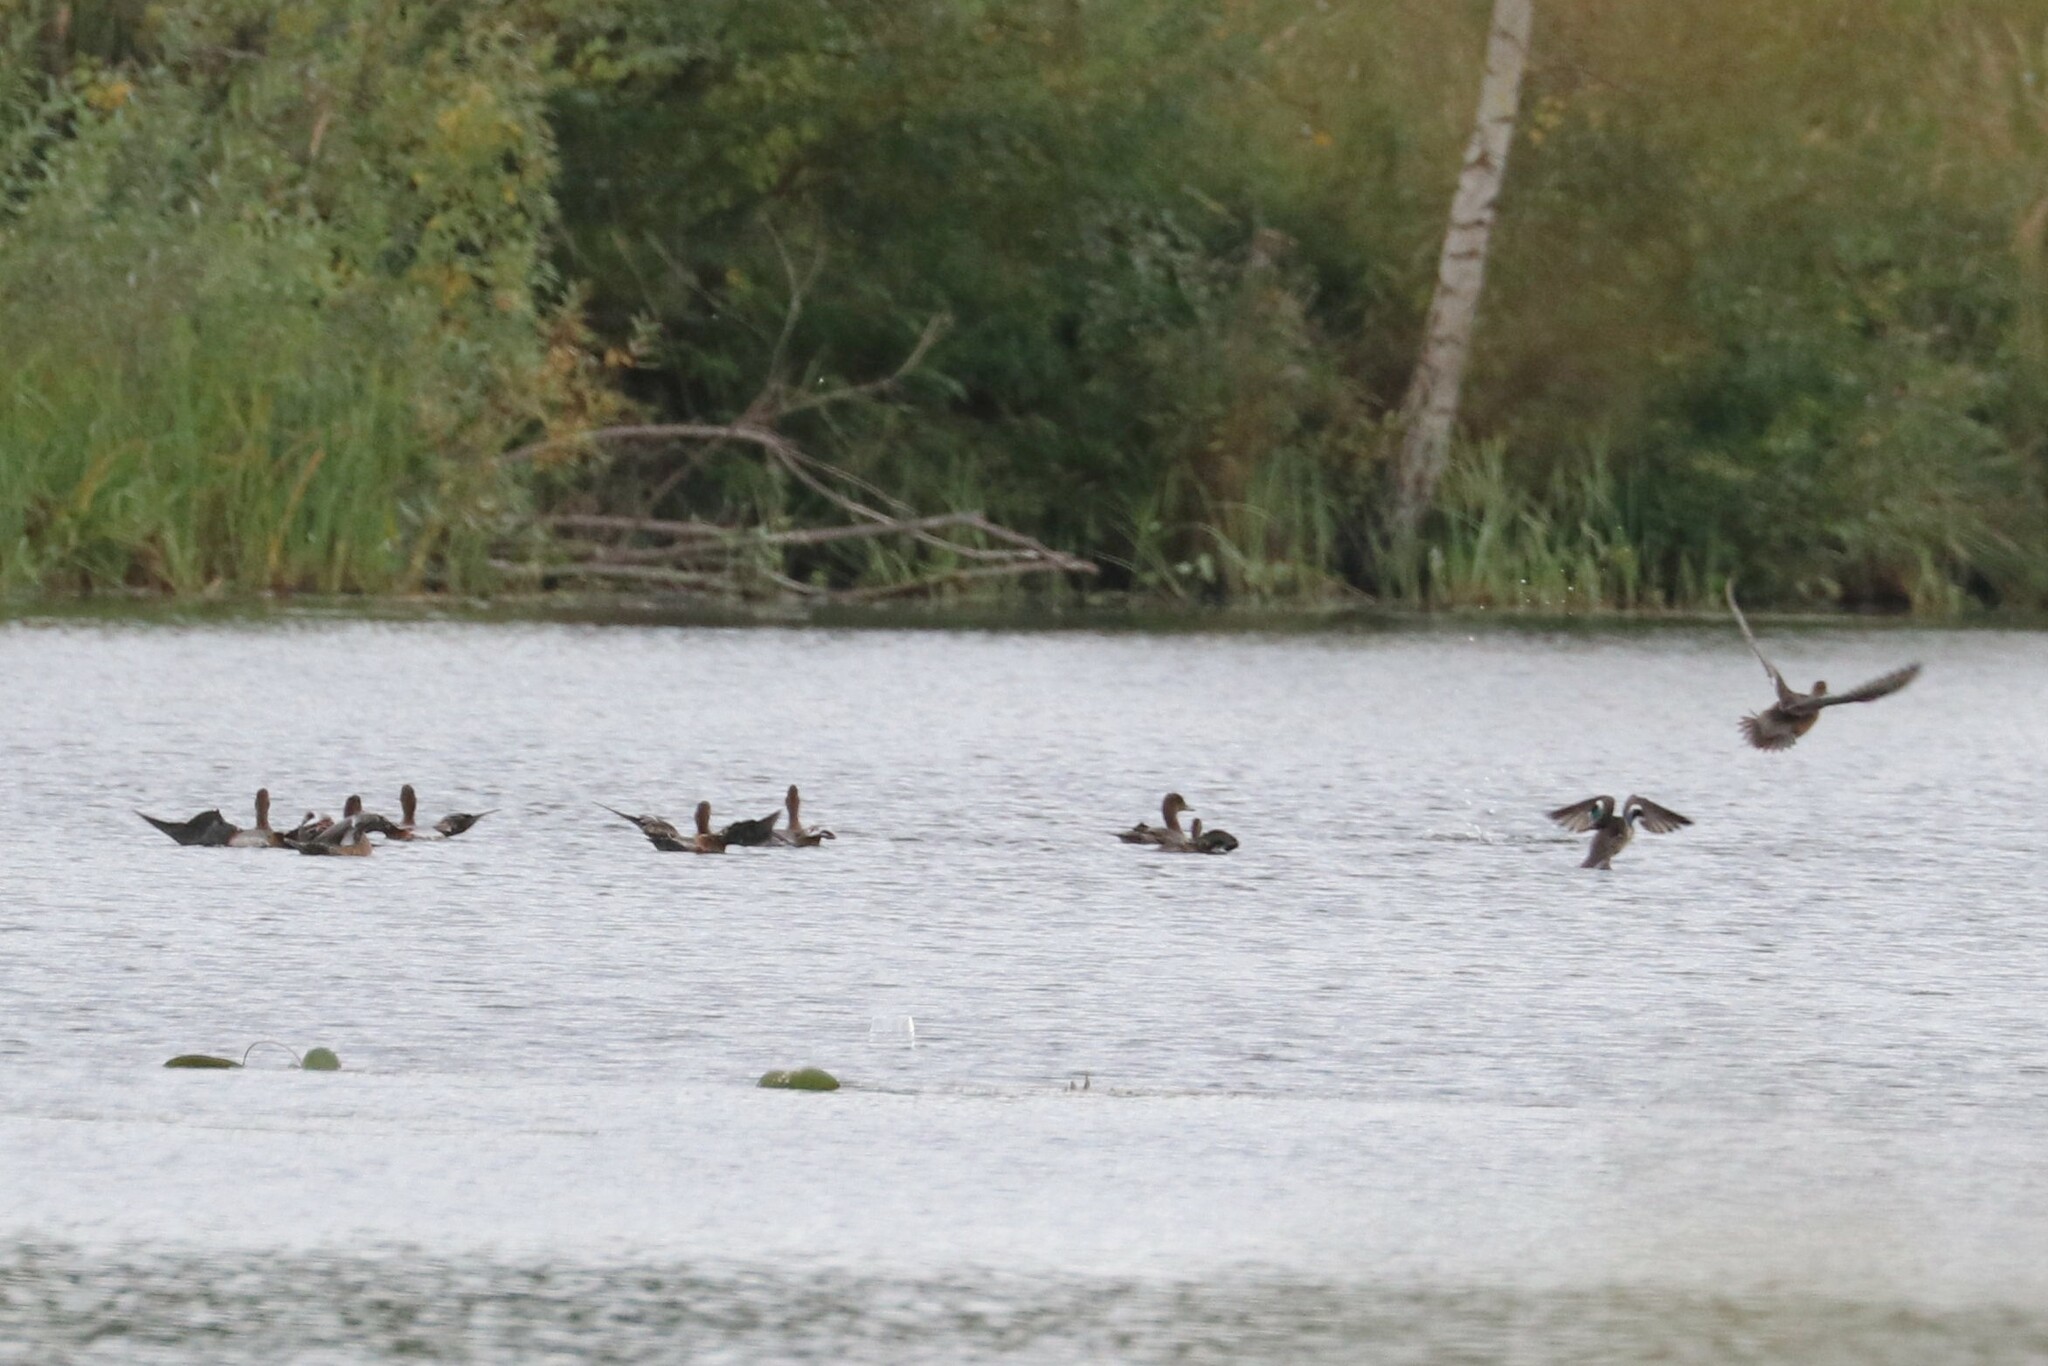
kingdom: Animalia
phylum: Chordata
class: Aves
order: Anseriformes
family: Anatidae
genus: Mareca
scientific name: Mareca penelope
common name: Eurasian wigeon
